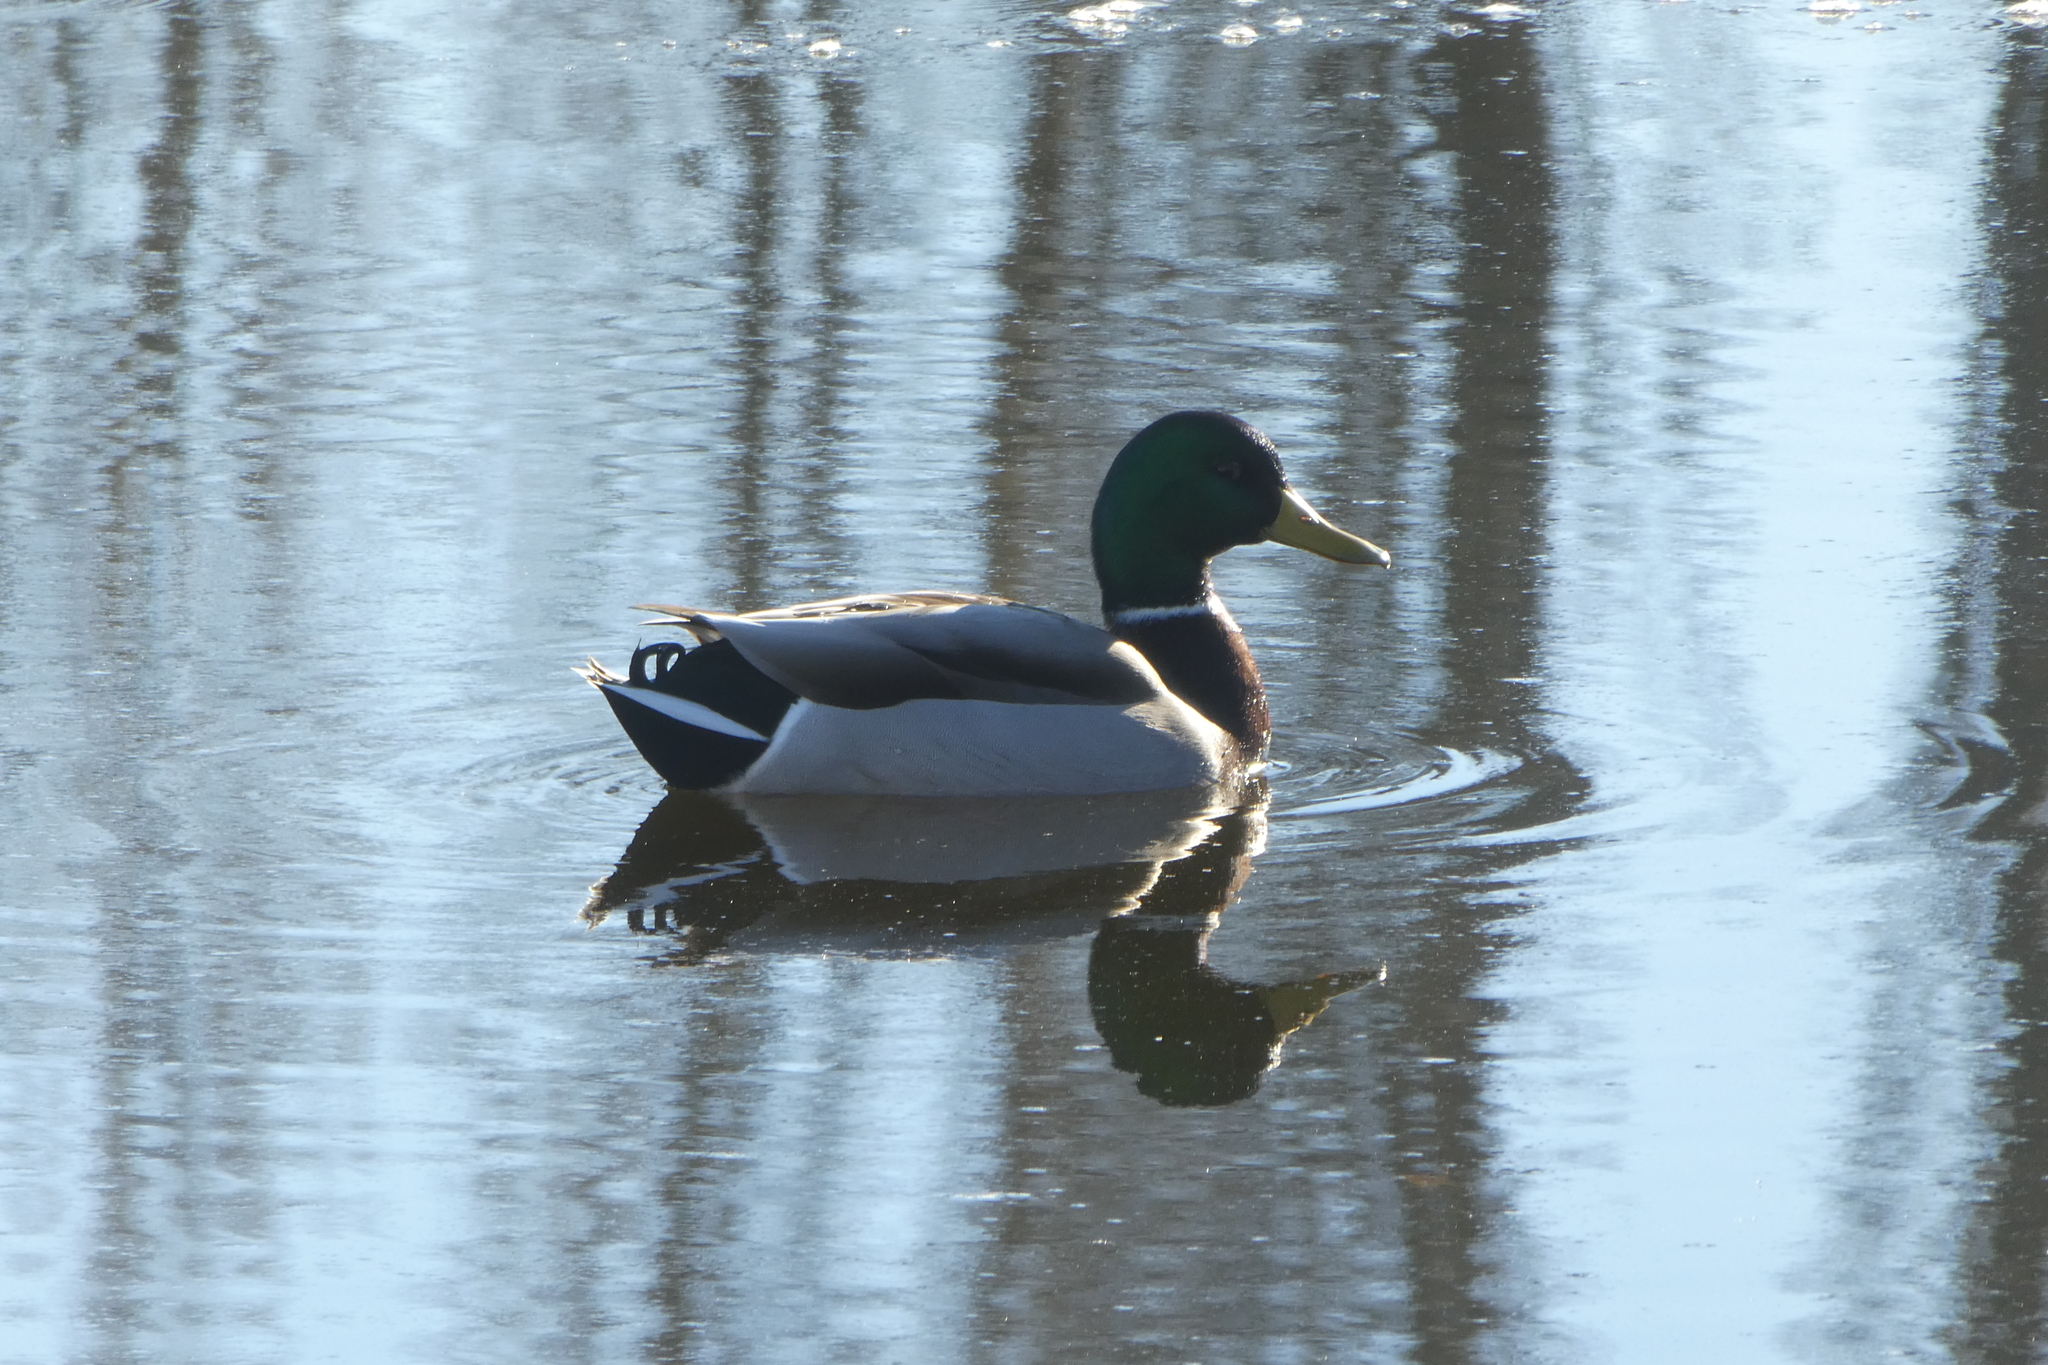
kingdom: Animalia
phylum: Chordata
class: Aves
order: Anseriformes
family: Anatidae
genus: Anas
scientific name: Anas platyrhynchos
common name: Mallard
